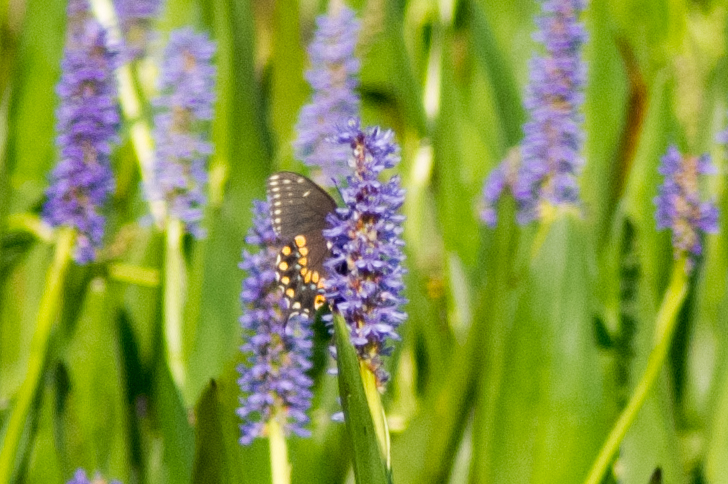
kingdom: Animalia
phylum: Arthropoda
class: Insecta
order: Lepidoptera
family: Papilionidae
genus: Papilio
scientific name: Papilio polyxenes
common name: Black swallowtail
